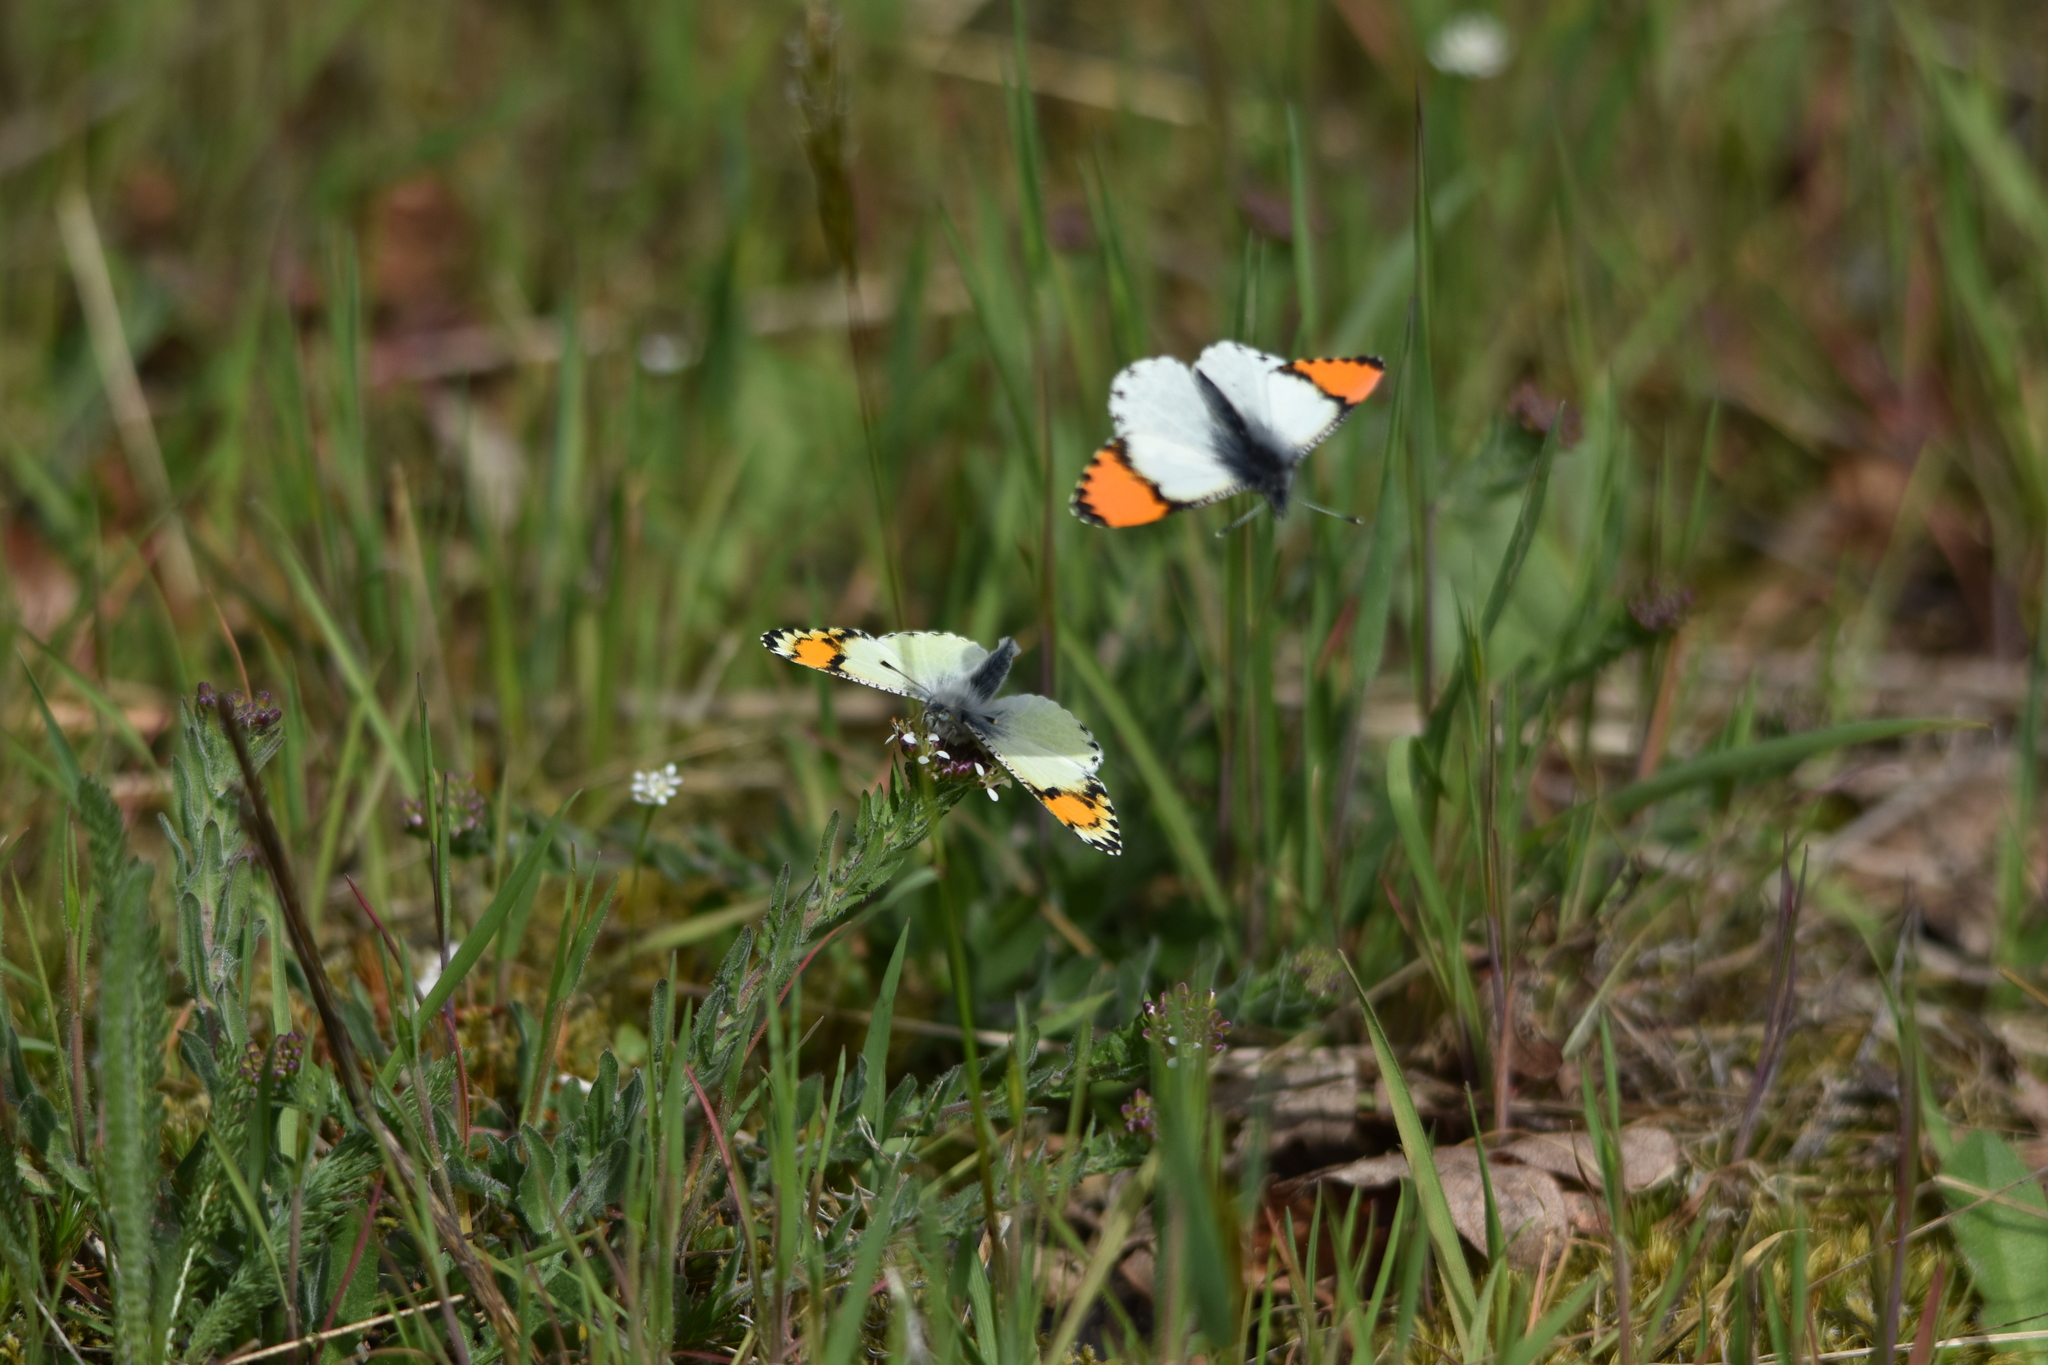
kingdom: Animalia
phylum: Arthropoda
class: Insecta
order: Lepidoptera
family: Pieridae
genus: Anthocharis
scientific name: Anthocharis julia
